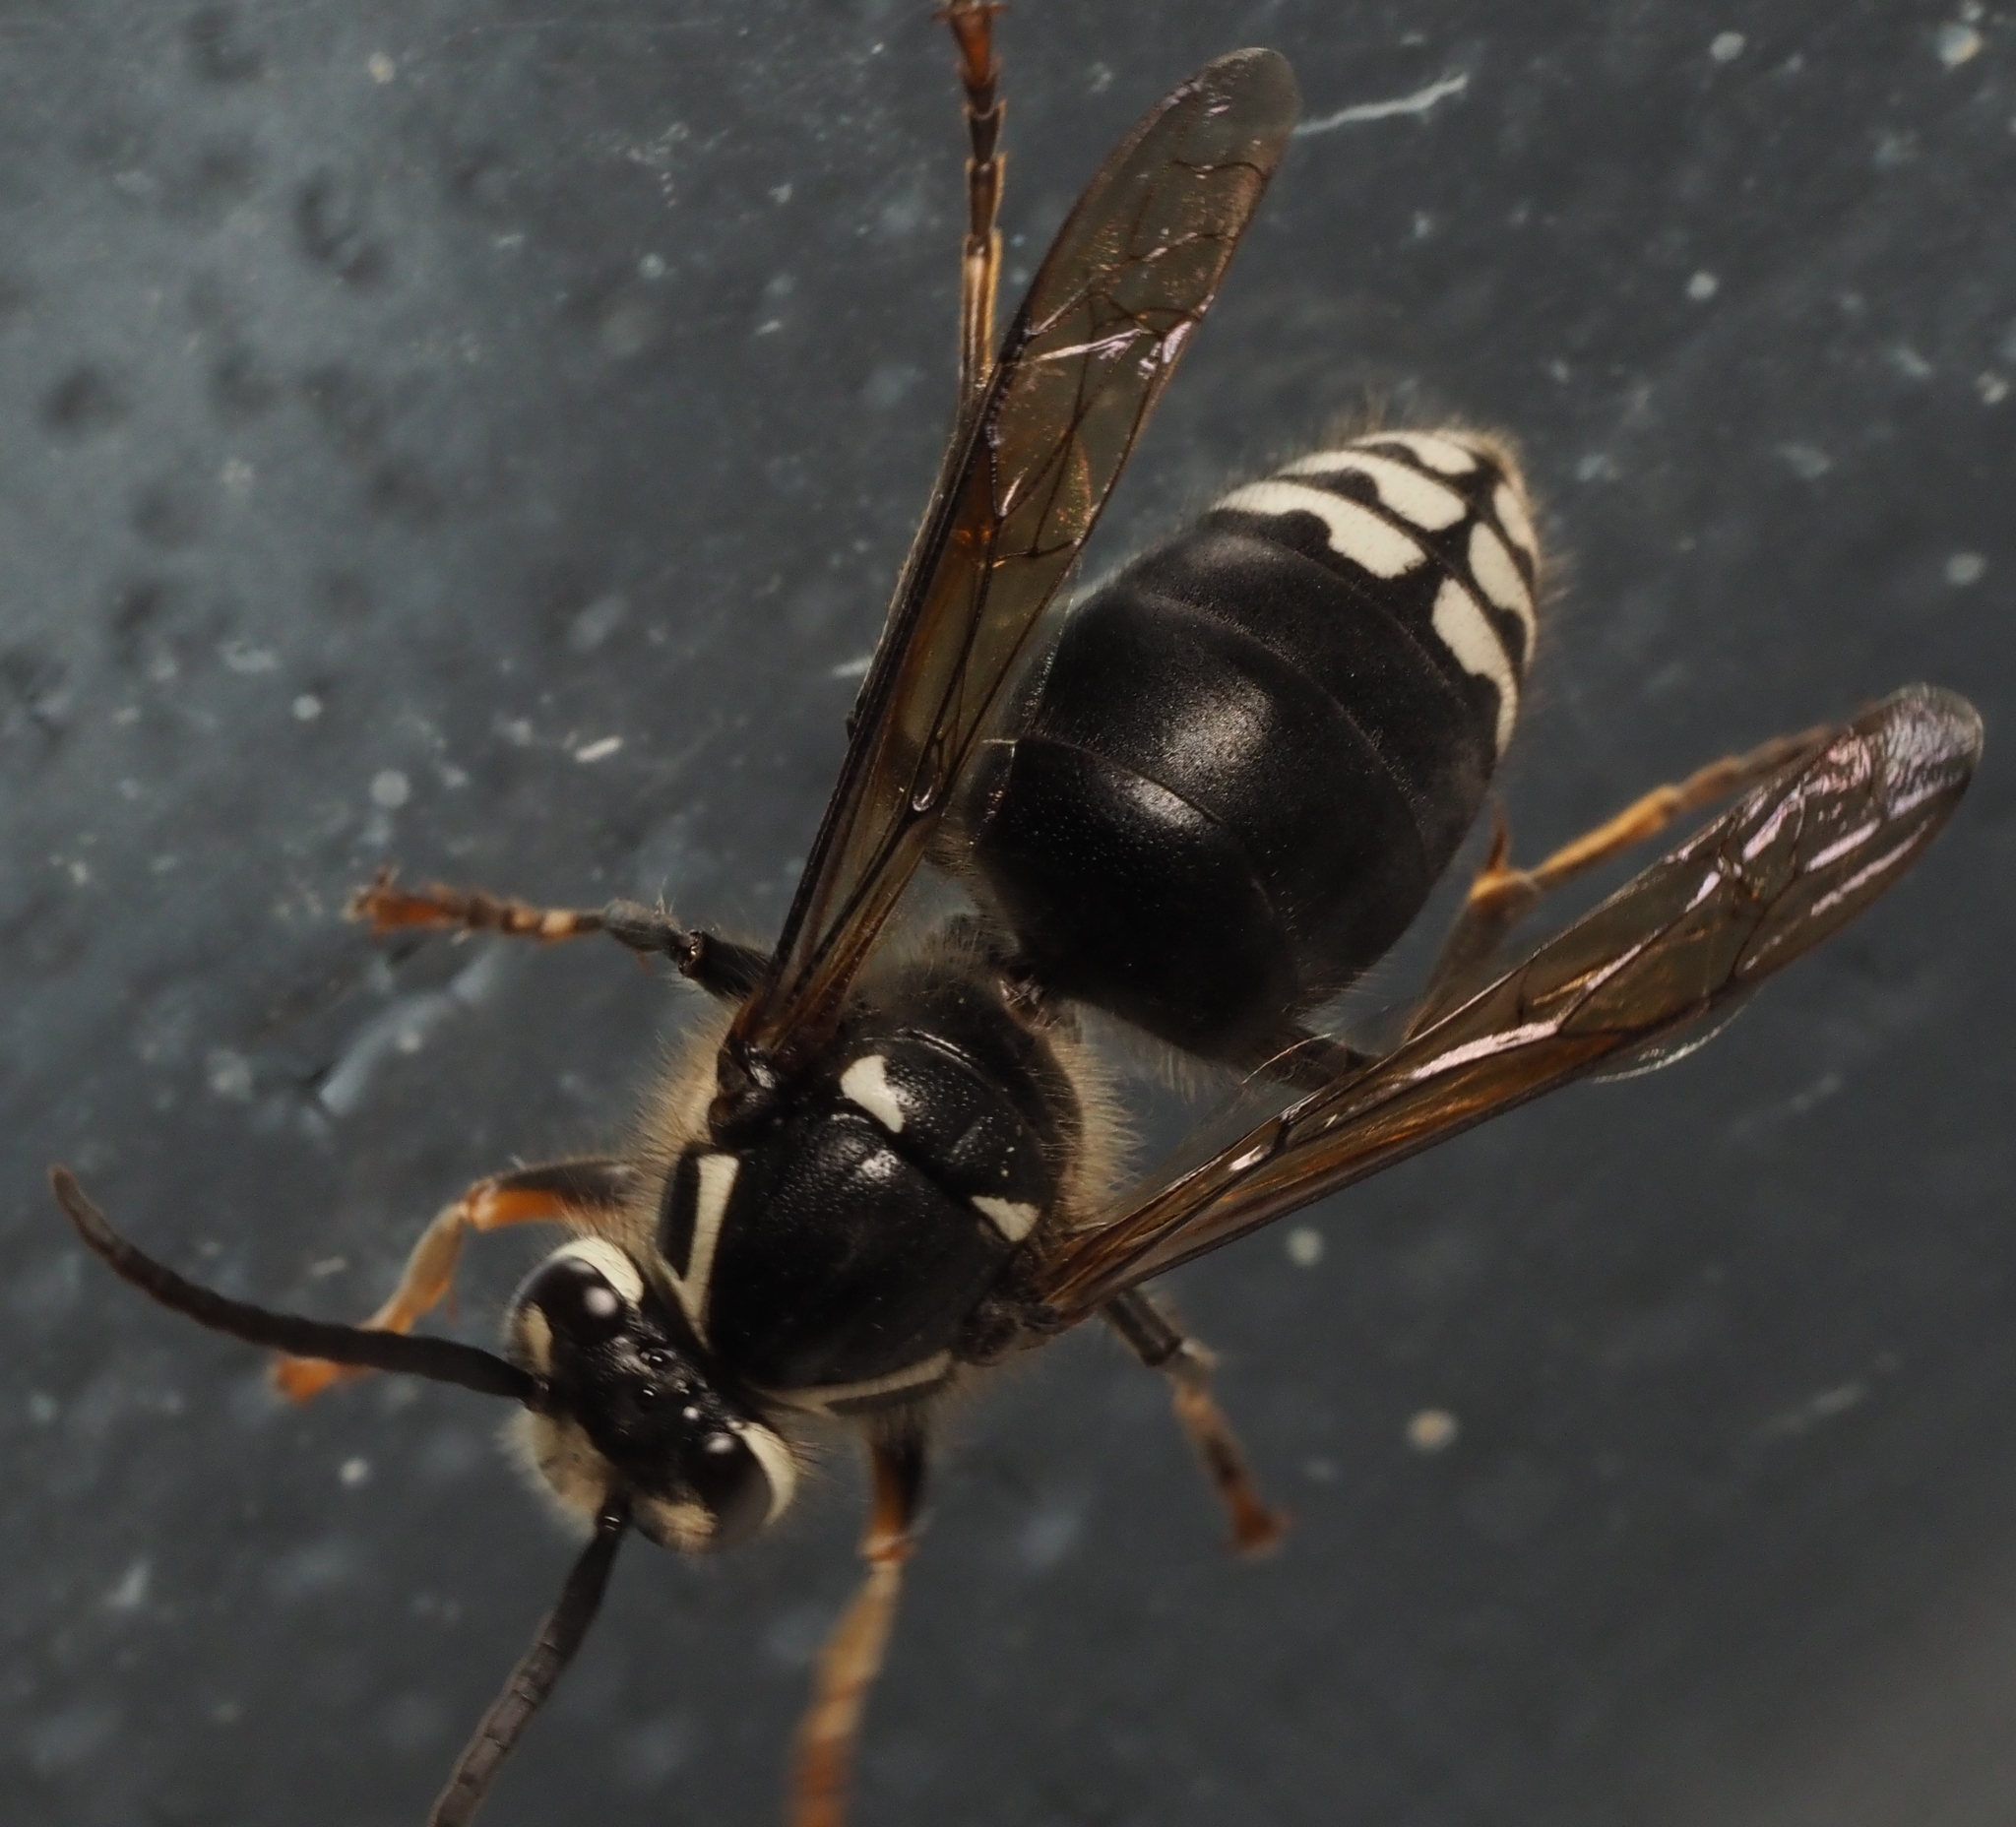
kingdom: Animalia
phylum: Arthropoda
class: Insecta
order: Hymenoptera
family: Vespidae
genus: Dolichovespula
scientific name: Dolichovespula maculata
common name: Bald-faced hornet
